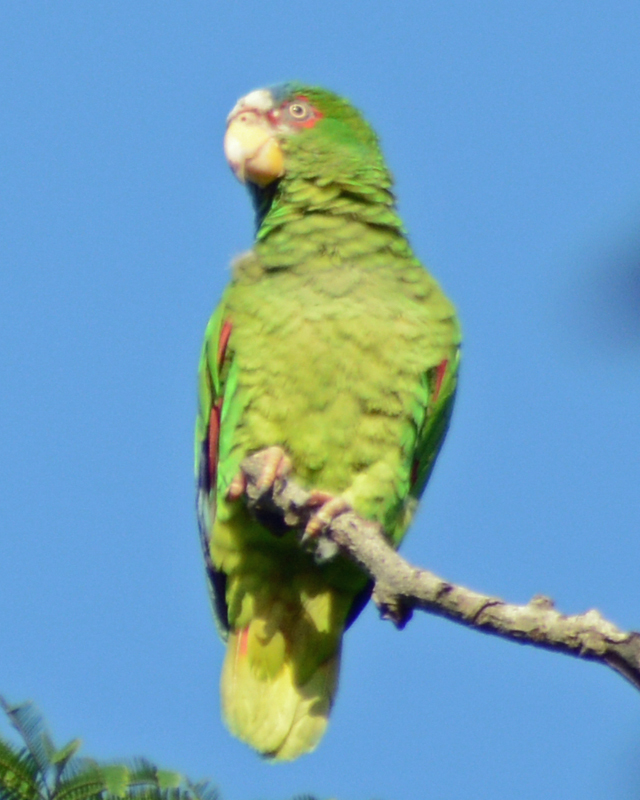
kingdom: Animalia
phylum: Chordata
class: Aves
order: Psittaciformes
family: Psittacidae
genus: Amazona
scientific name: Amazona albifrons
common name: White-fronted amazon
